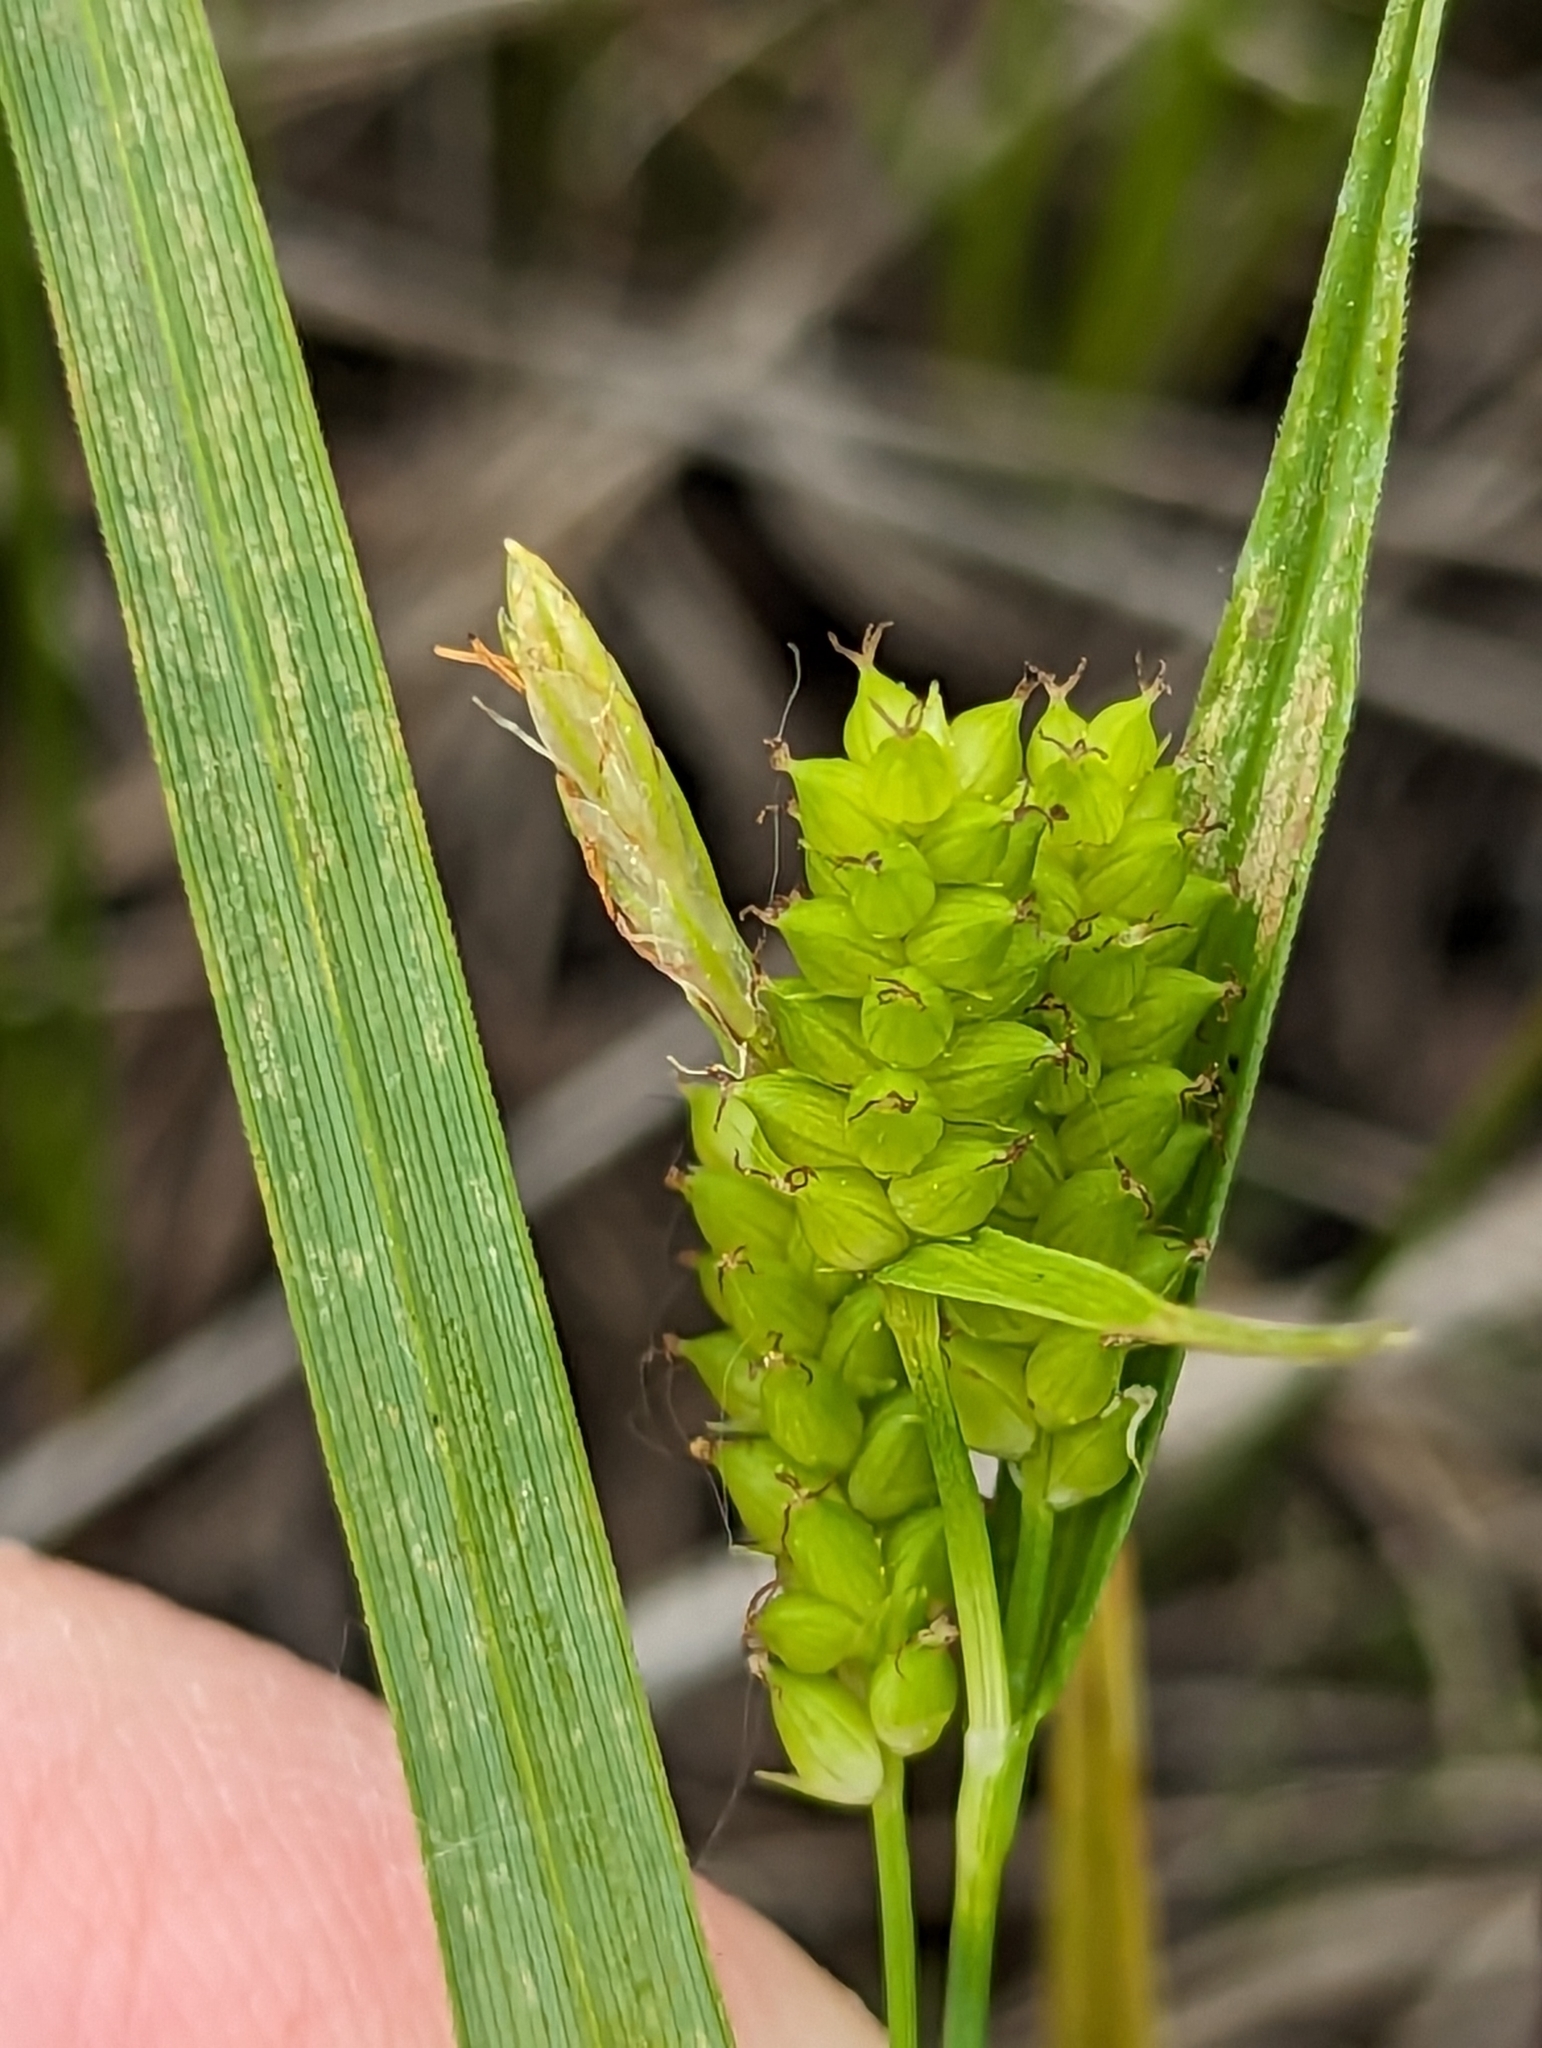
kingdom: Plantae
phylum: Tracheophyta
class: Liliopsida
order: Poales
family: Cyperaceae
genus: Carex
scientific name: Carex granularis
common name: Granular sedge
